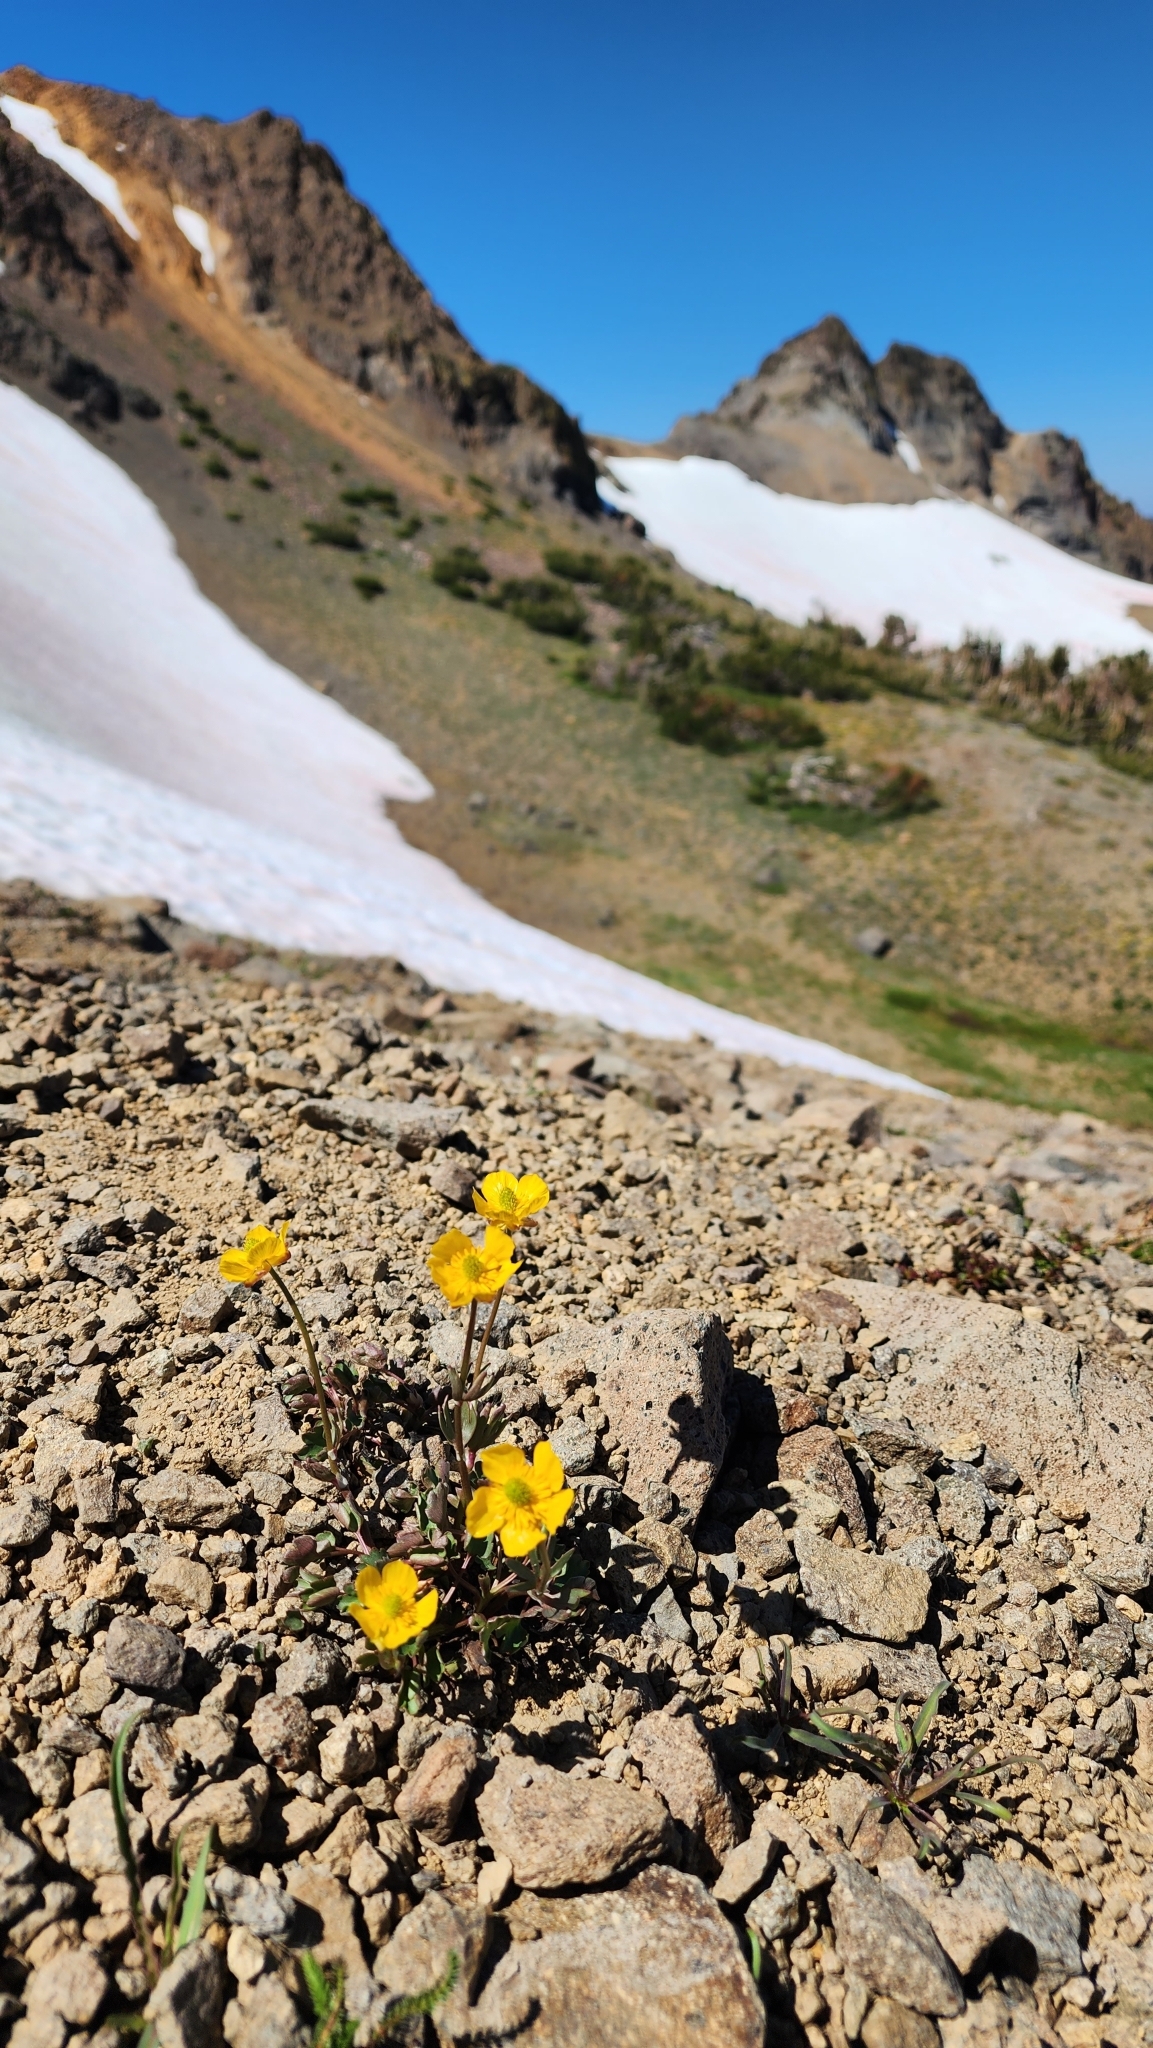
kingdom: Plantae
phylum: Tracheophyta
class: Magnoliopsida
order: Ranunculales
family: Ranunculaceae
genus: Ranunculus
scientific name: Ranunculus eschscholtzii
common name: Eschscholtz's buttercup
